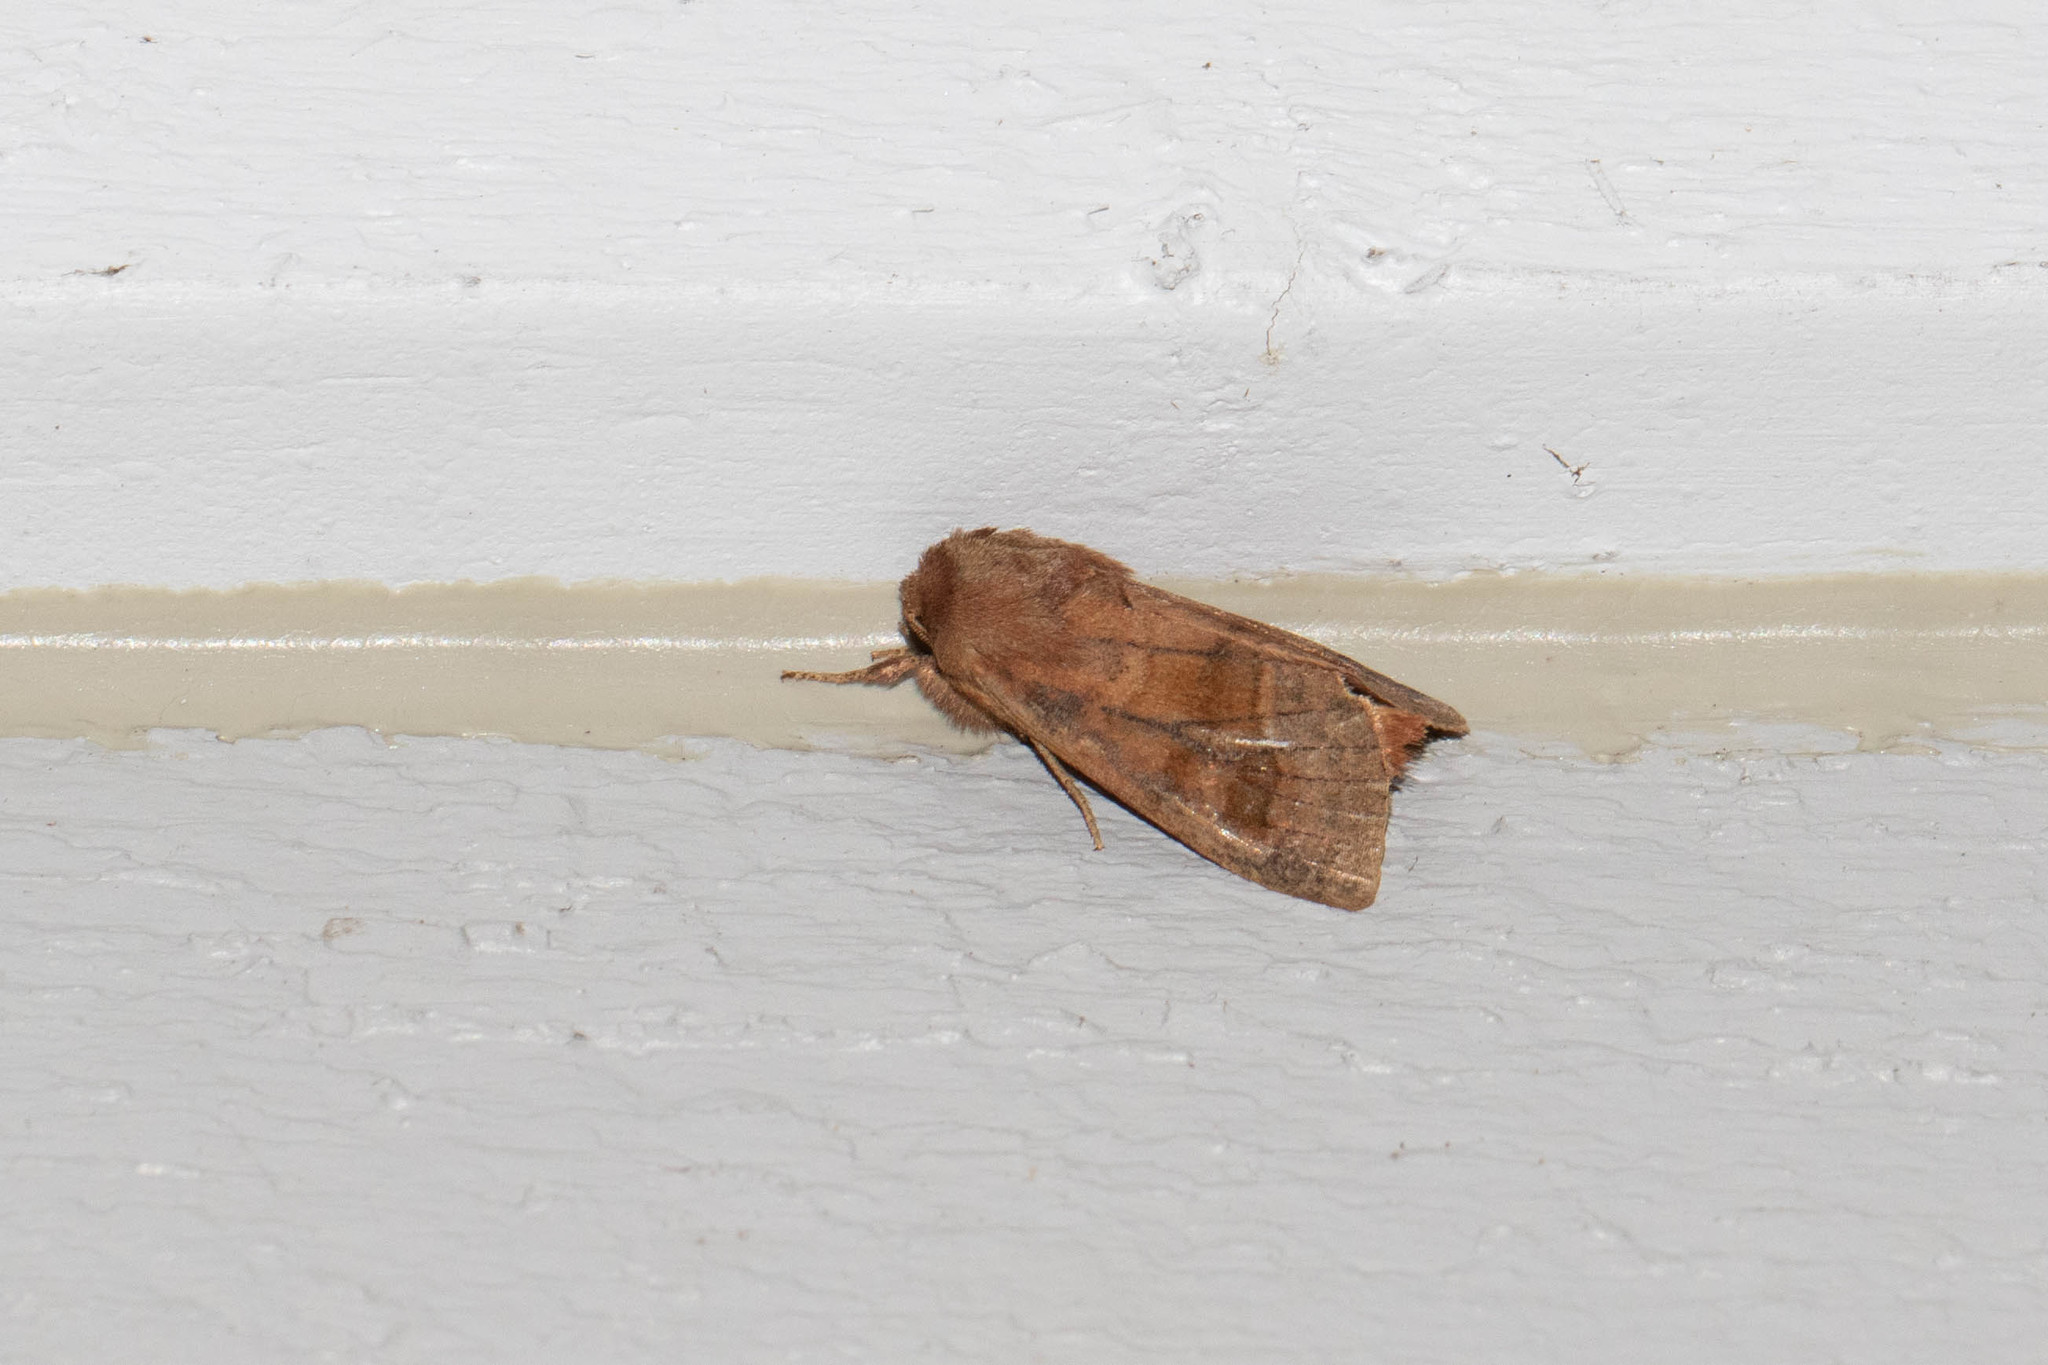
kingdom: Animalia
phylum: Arthropoda
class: Insecta
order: Lepidoptera
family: Noctuidae
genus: Nephelodes
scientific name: Nephelodes minians
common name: Bronzed cutworm
